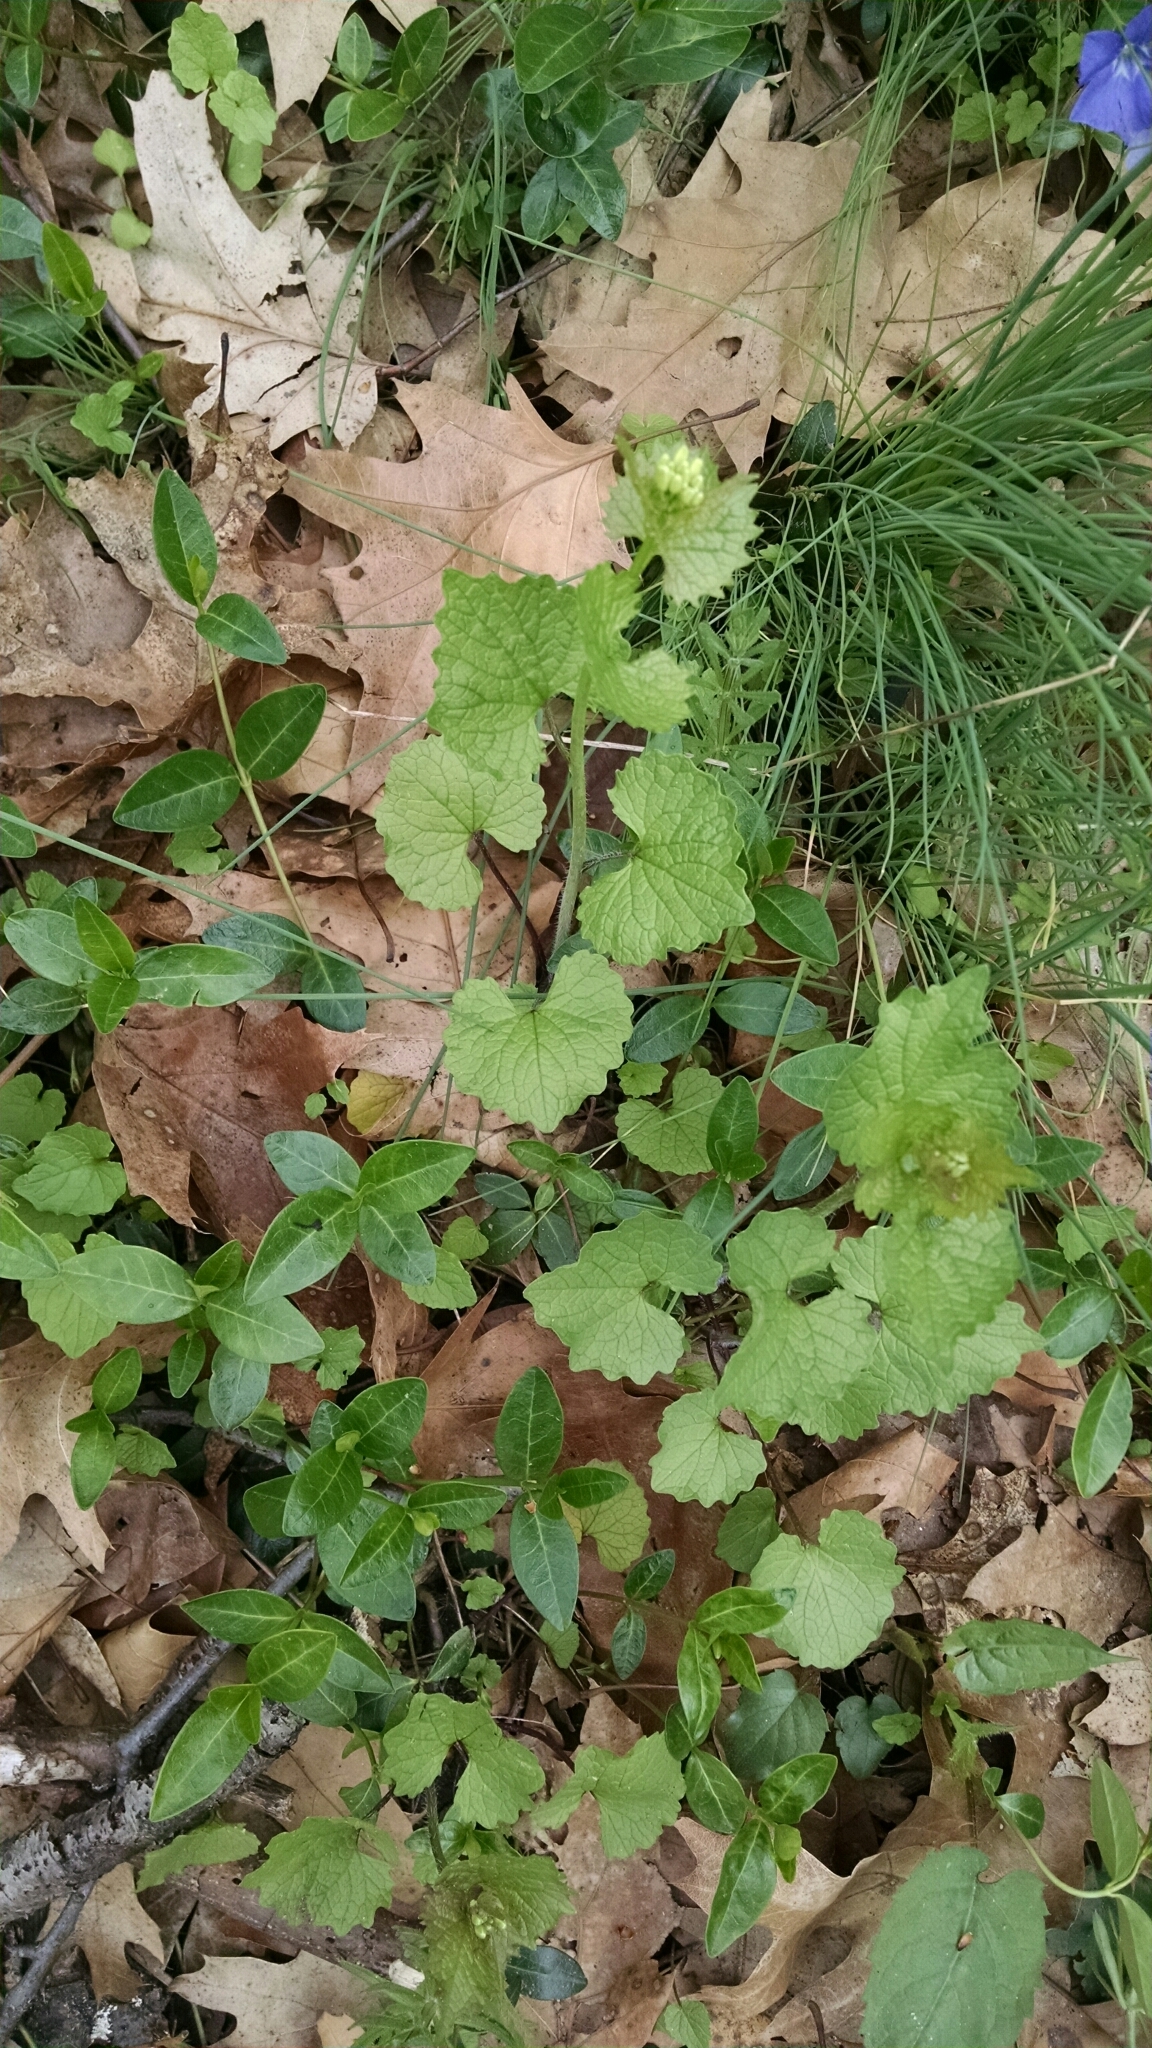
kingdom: Plantae
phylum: Tracheophyta
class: Magnoliopsida
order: Brassicales
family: Brassicaceae
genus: Alliaria
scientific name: Alliaria petiolata
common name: Garlic mustard
